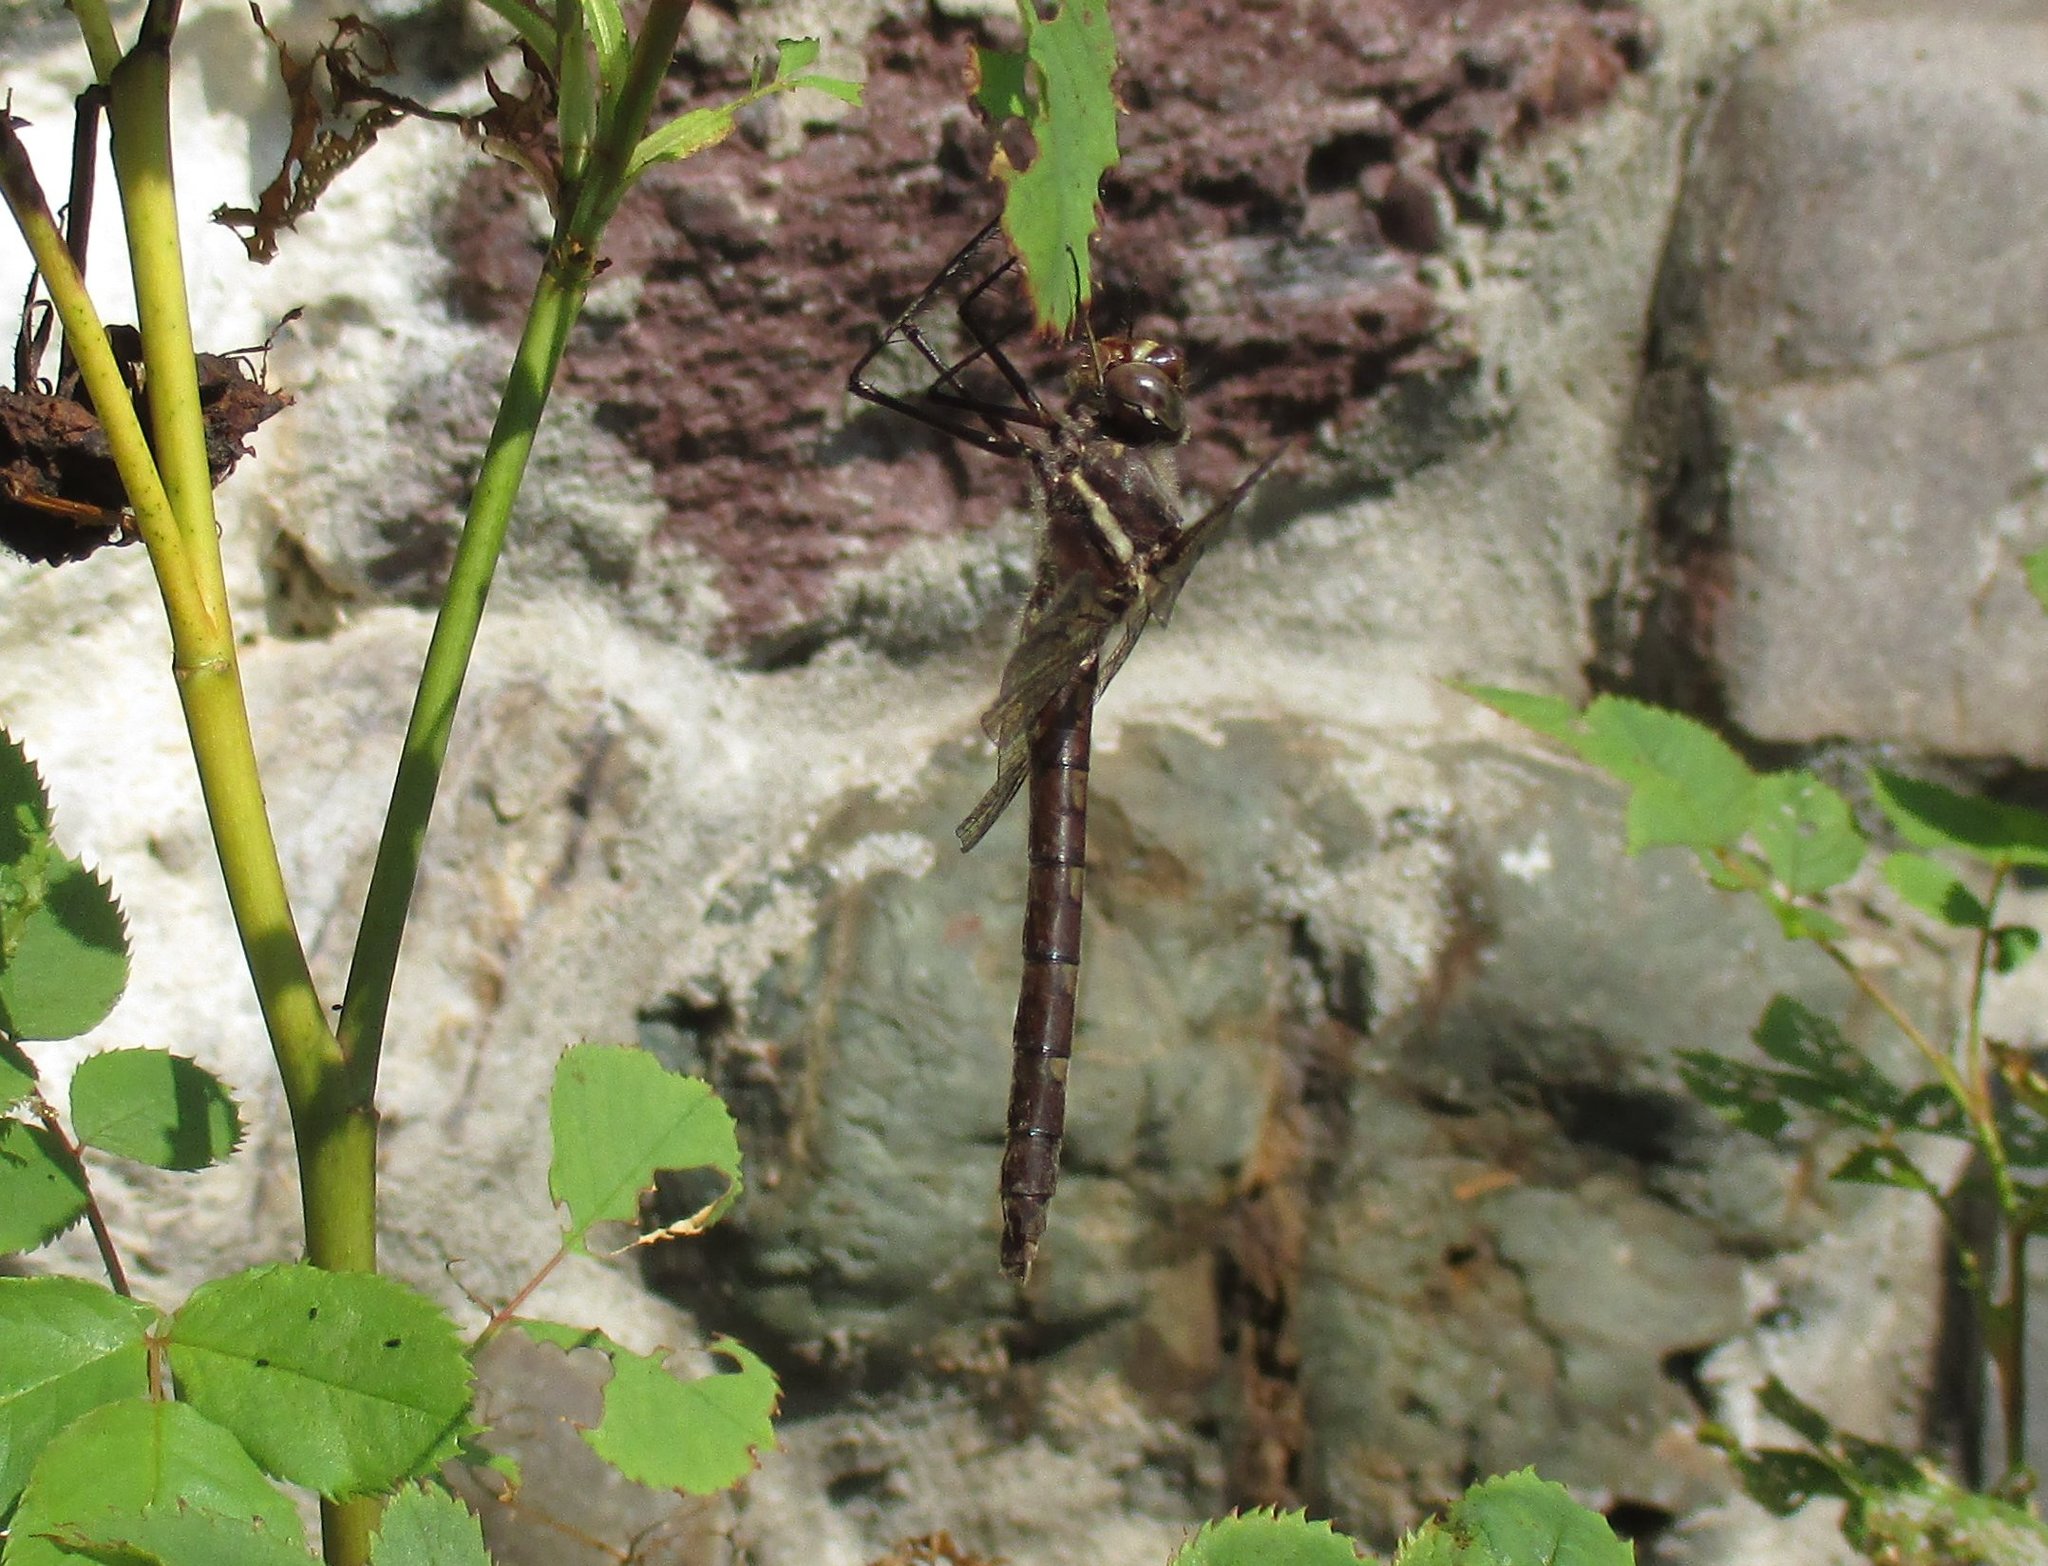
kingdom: Animalia
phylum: Arthropoda
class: Insecta
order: Odonata
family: Macromiidae
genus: Didymops
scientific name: Didymops transversa
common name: Stream cruiser
